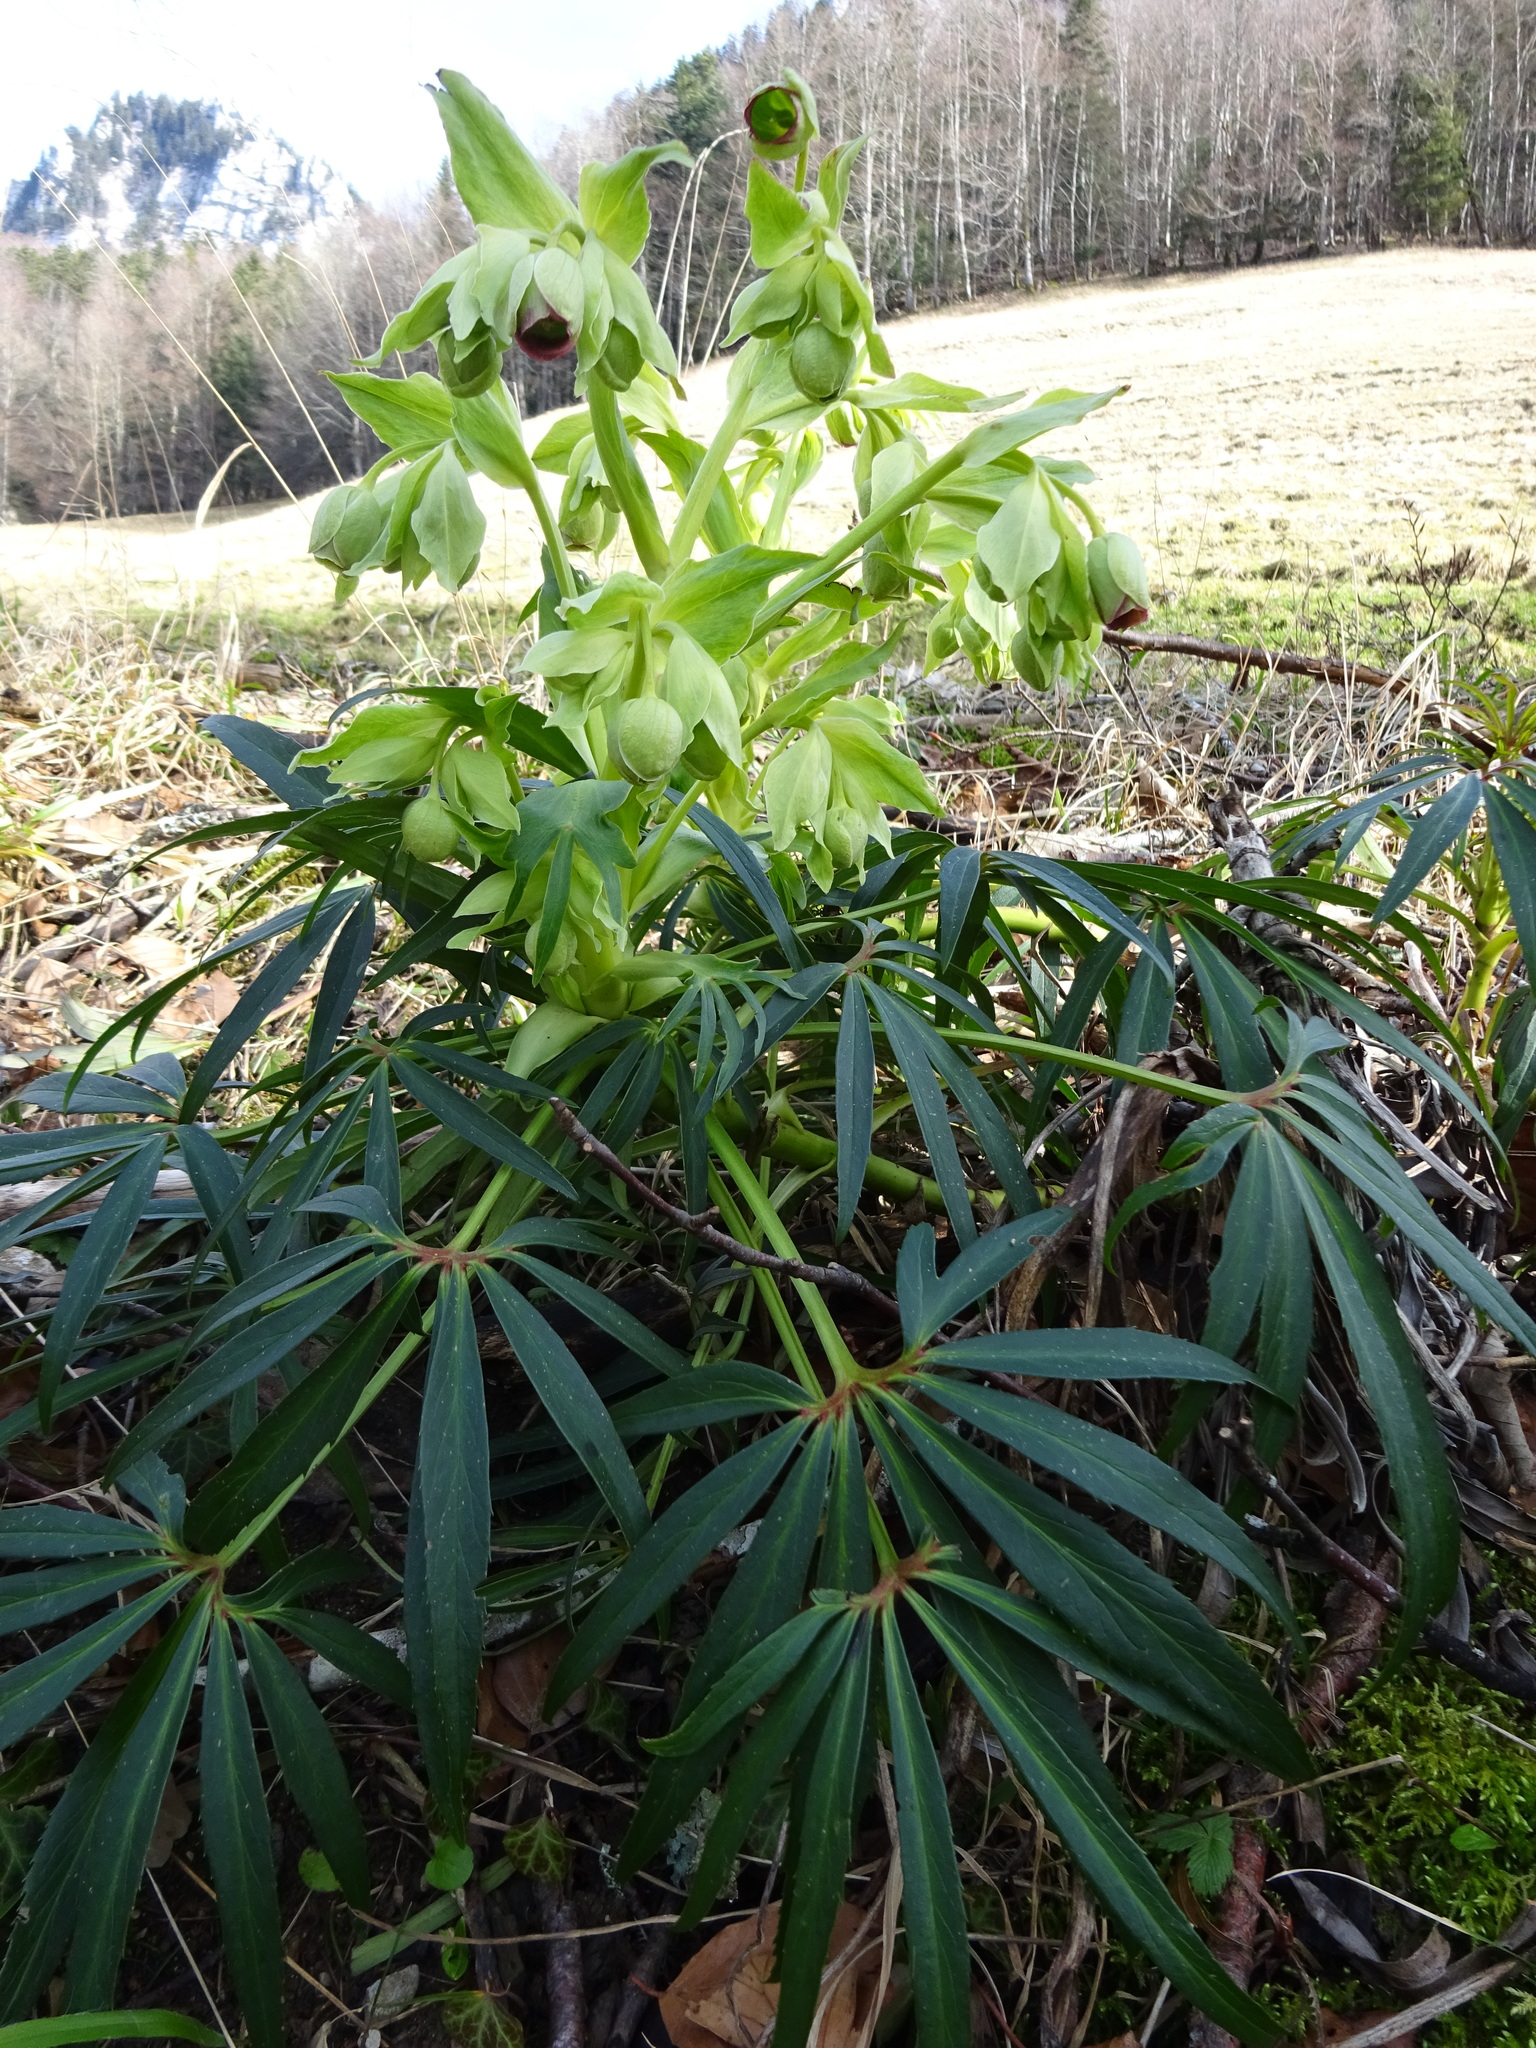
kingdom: Plantae
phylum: Tracheophyta
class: Magnoliopsida
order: Ranunculales
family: Ranunculaceae
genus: Helleborus
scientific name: Helleborus foetidus
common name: Stinking hellebore
